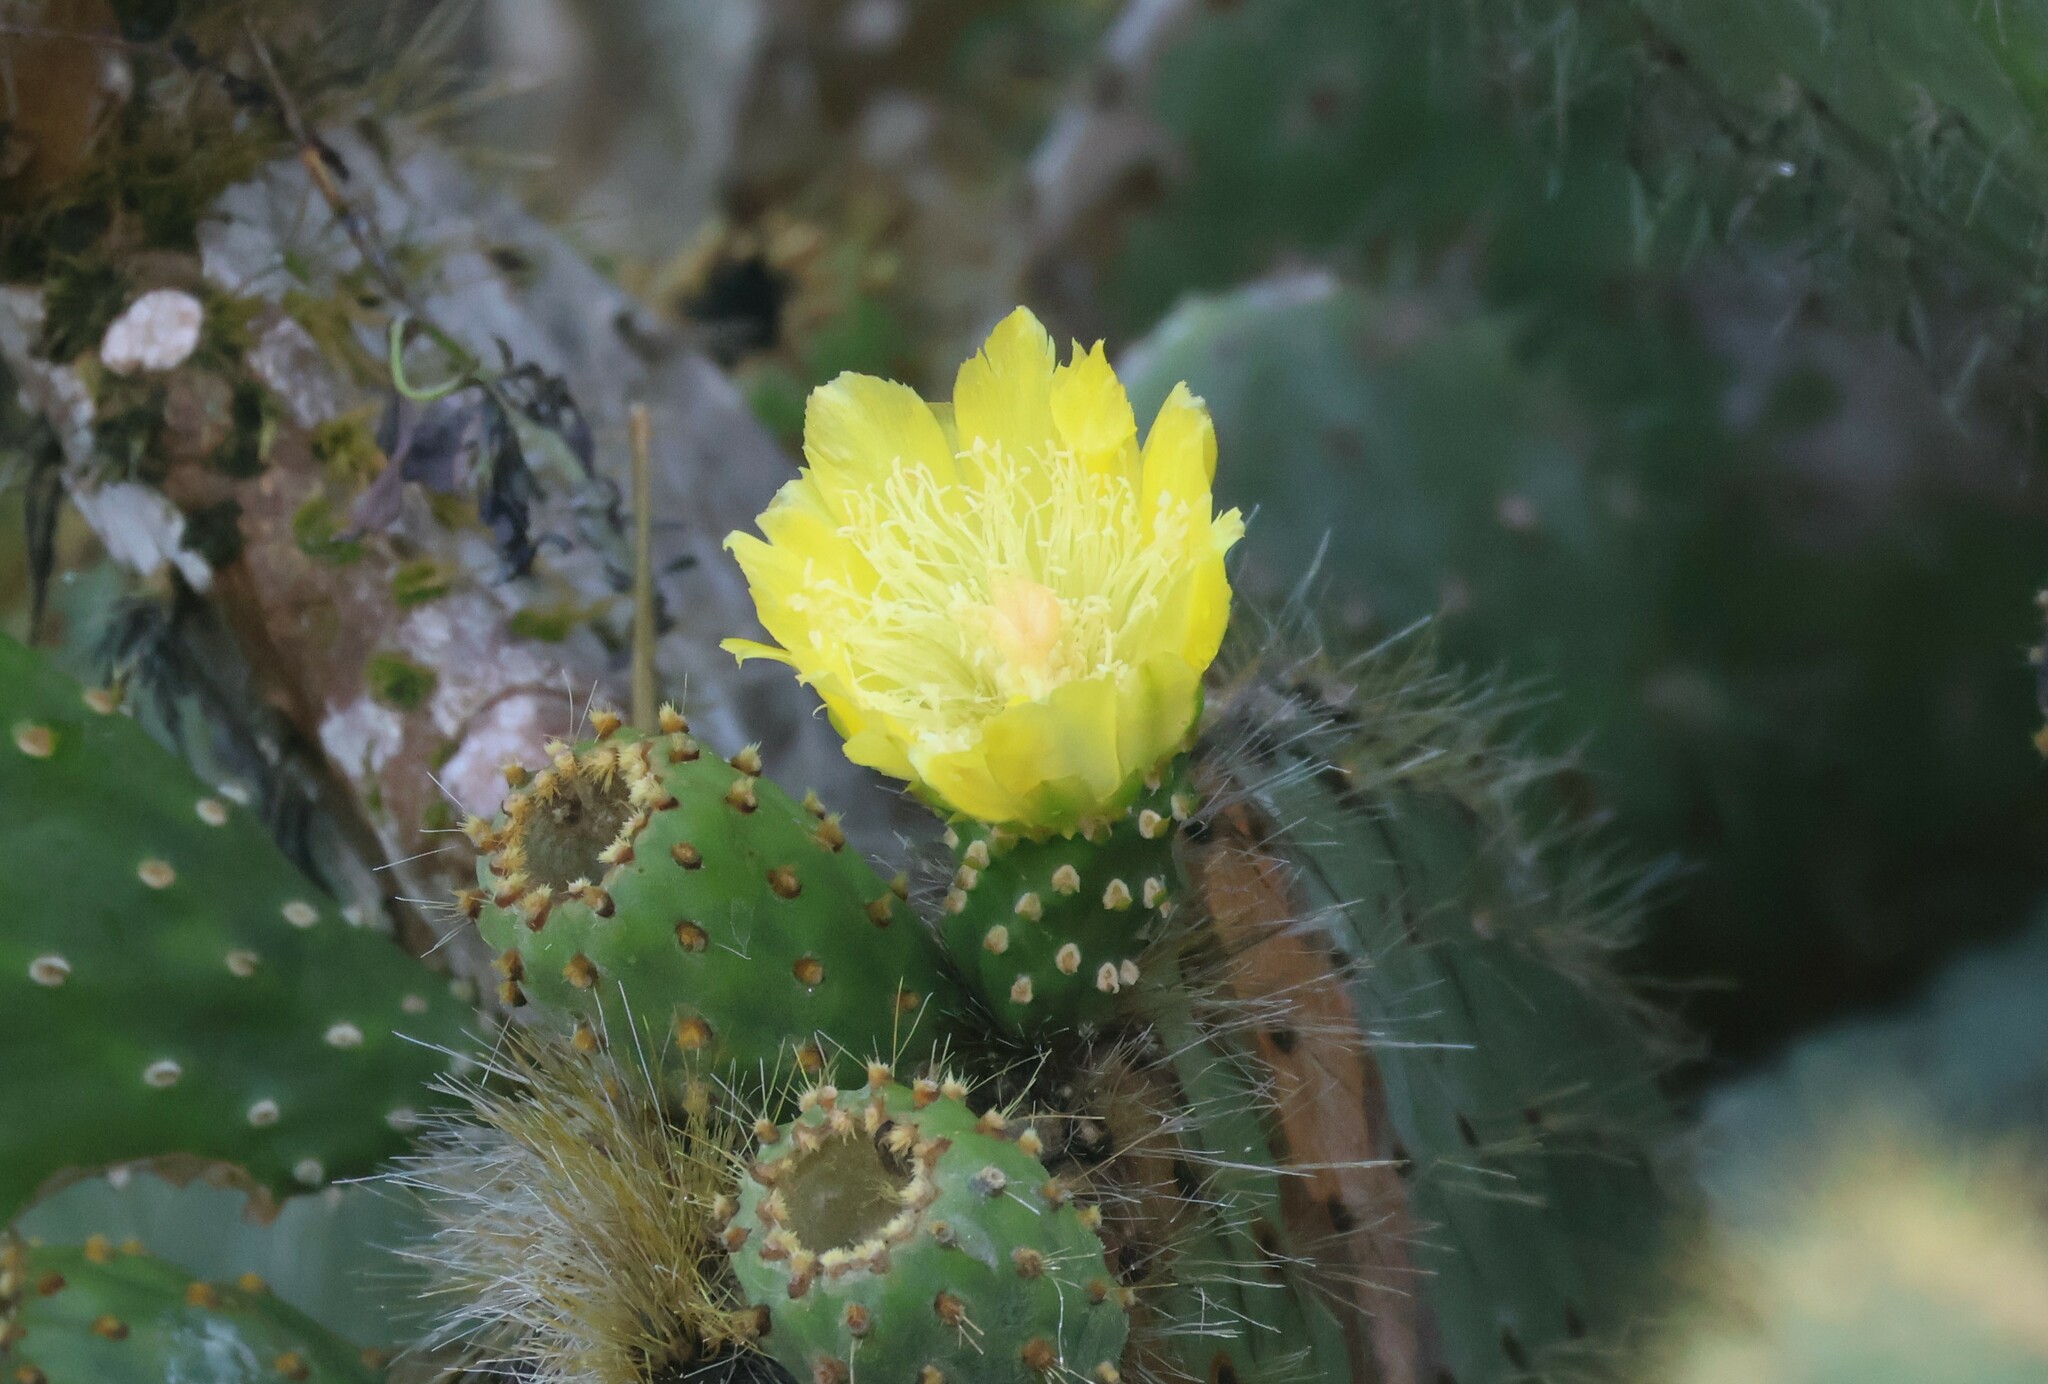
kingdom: Plantae
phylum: Tracheophyta
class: Magnoliopsida
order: Caryophyllales
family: Cactaceae
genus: Opuntia
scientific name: Opuntia galapageia
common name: Galápagos prickly pear
